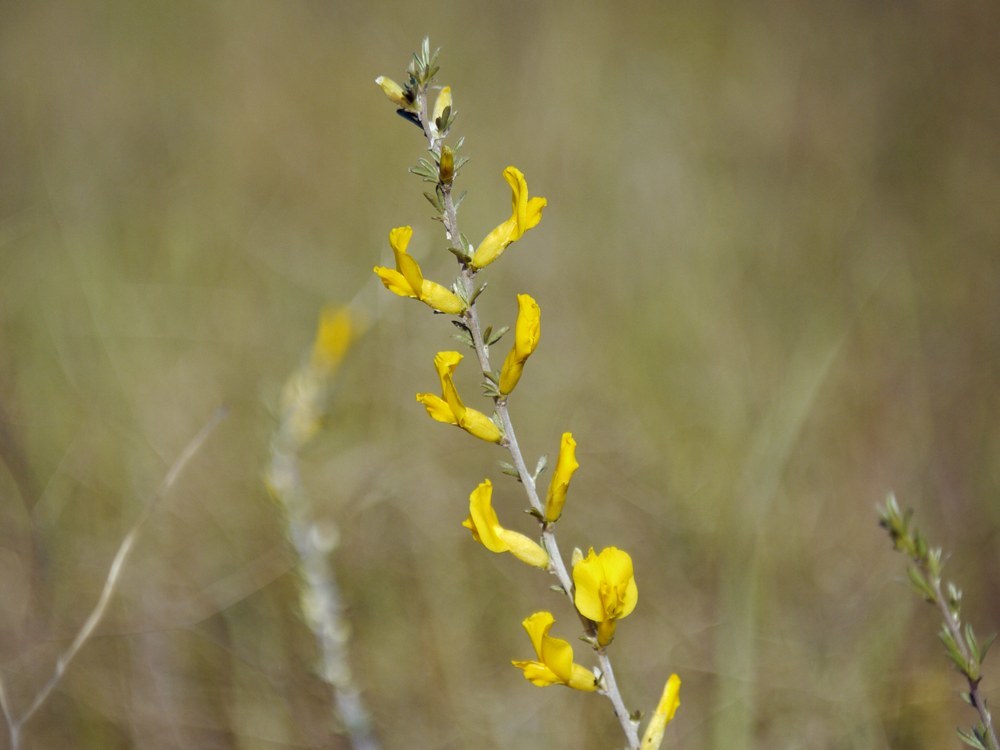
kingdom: Plantae
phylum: Tracheophyta
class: Magnoliopsida
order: Fabales
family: Fabaceae
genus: Chamaecytisus
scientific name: Chamaecytisus borysthenicus
